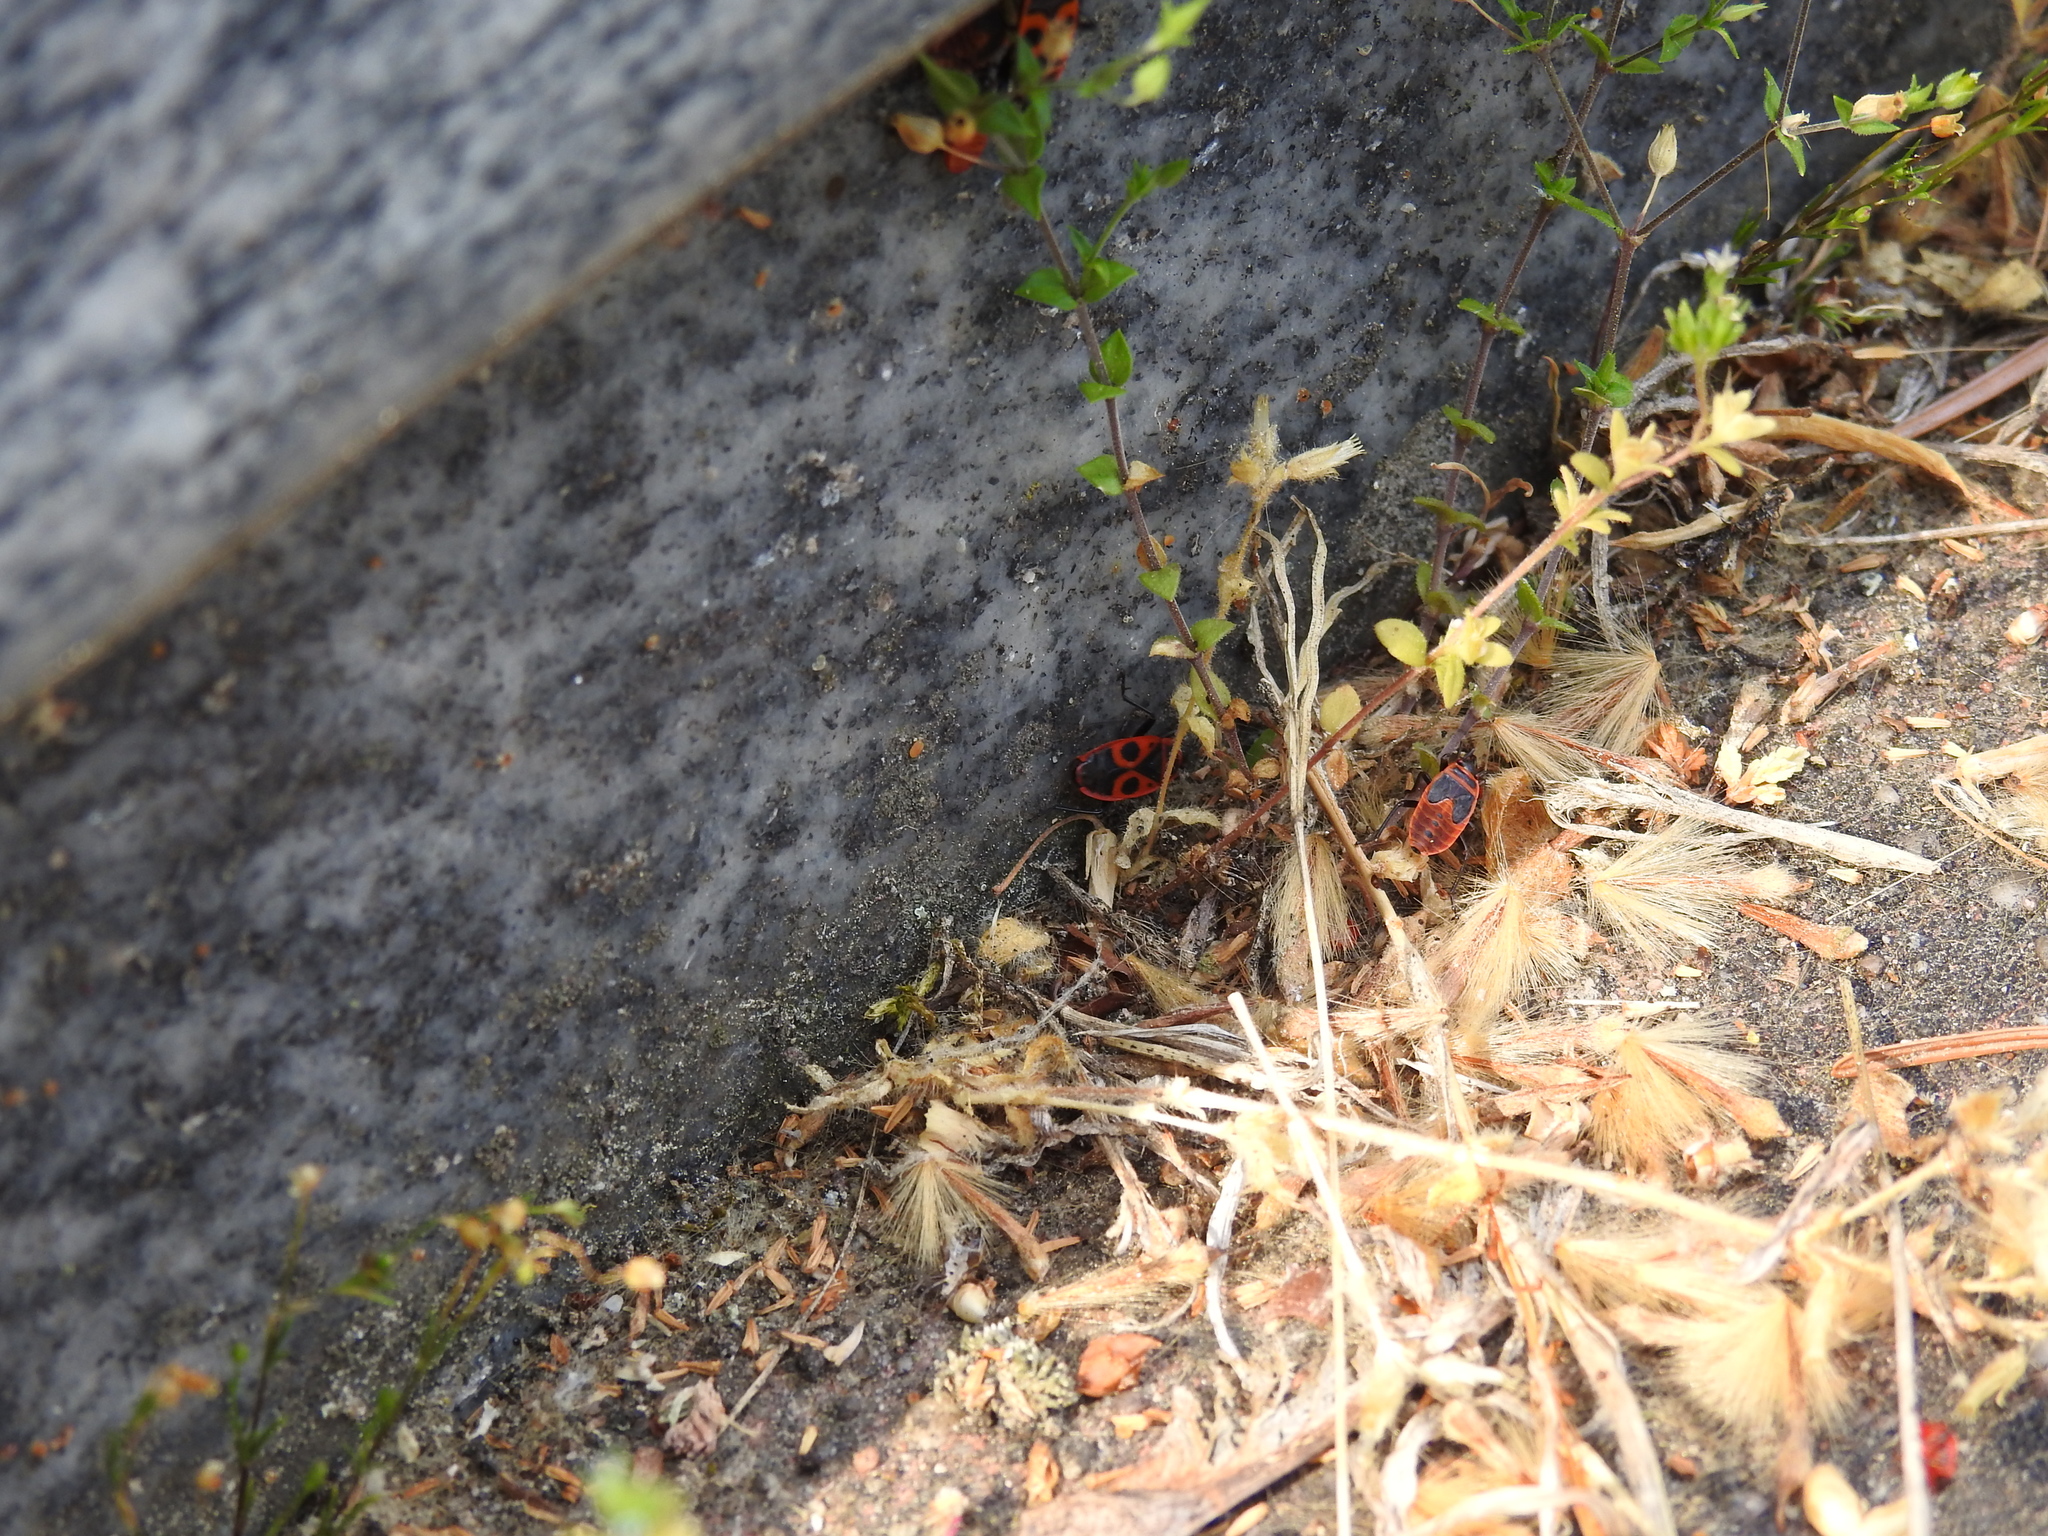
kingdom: Animalia
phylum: Arthropoda
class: Insecta
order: Hemiptera
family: Pyrrhocoridae
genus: Pyrrhocoris
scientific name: Pyrrhocoris apterus
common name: Firebug
